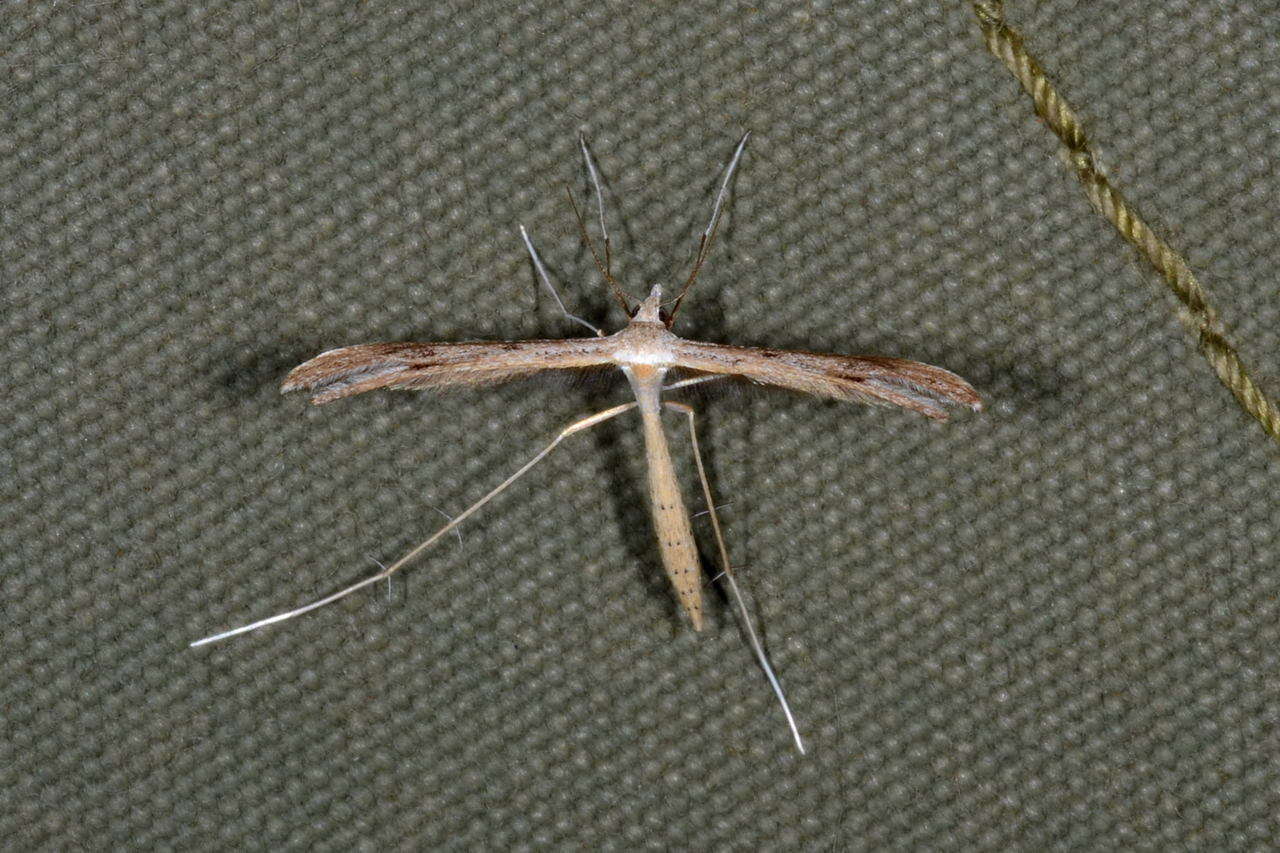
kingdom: Animalia
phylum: Arthropoda
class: Insecta
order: Lepidoptera
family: Pterophoridae
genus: Stenoptilia
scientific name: Stenoptilia zophodactylus
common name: Dowdy plume
